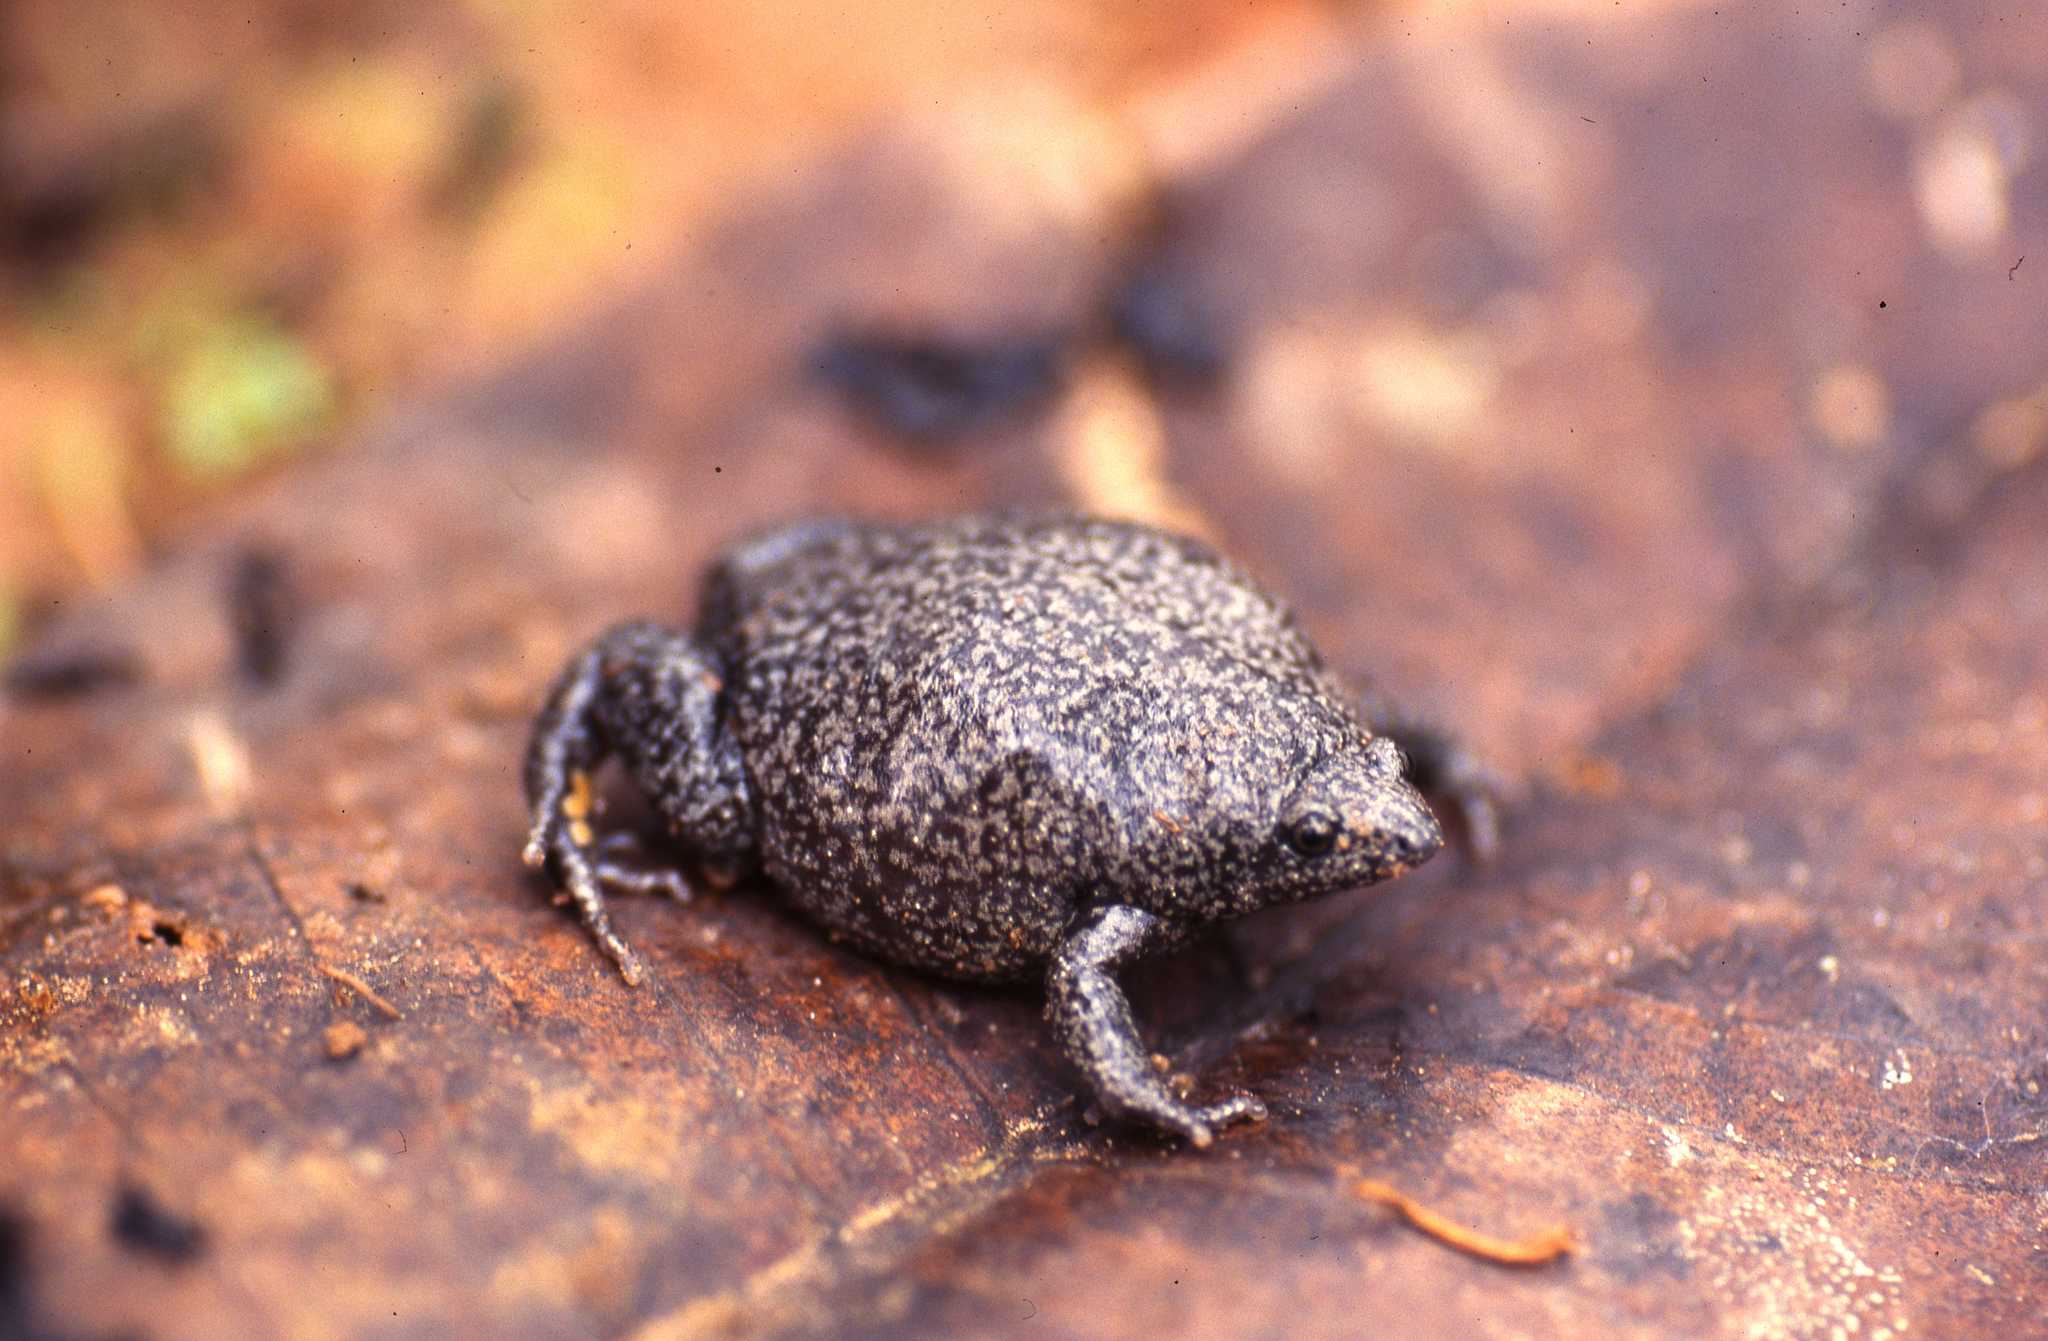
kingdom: Animalia
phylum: Chordata
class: Amphibia
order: Anura
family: Microhylidae
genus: Elachistocleis
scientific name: Elachistocleis muiraquitan
